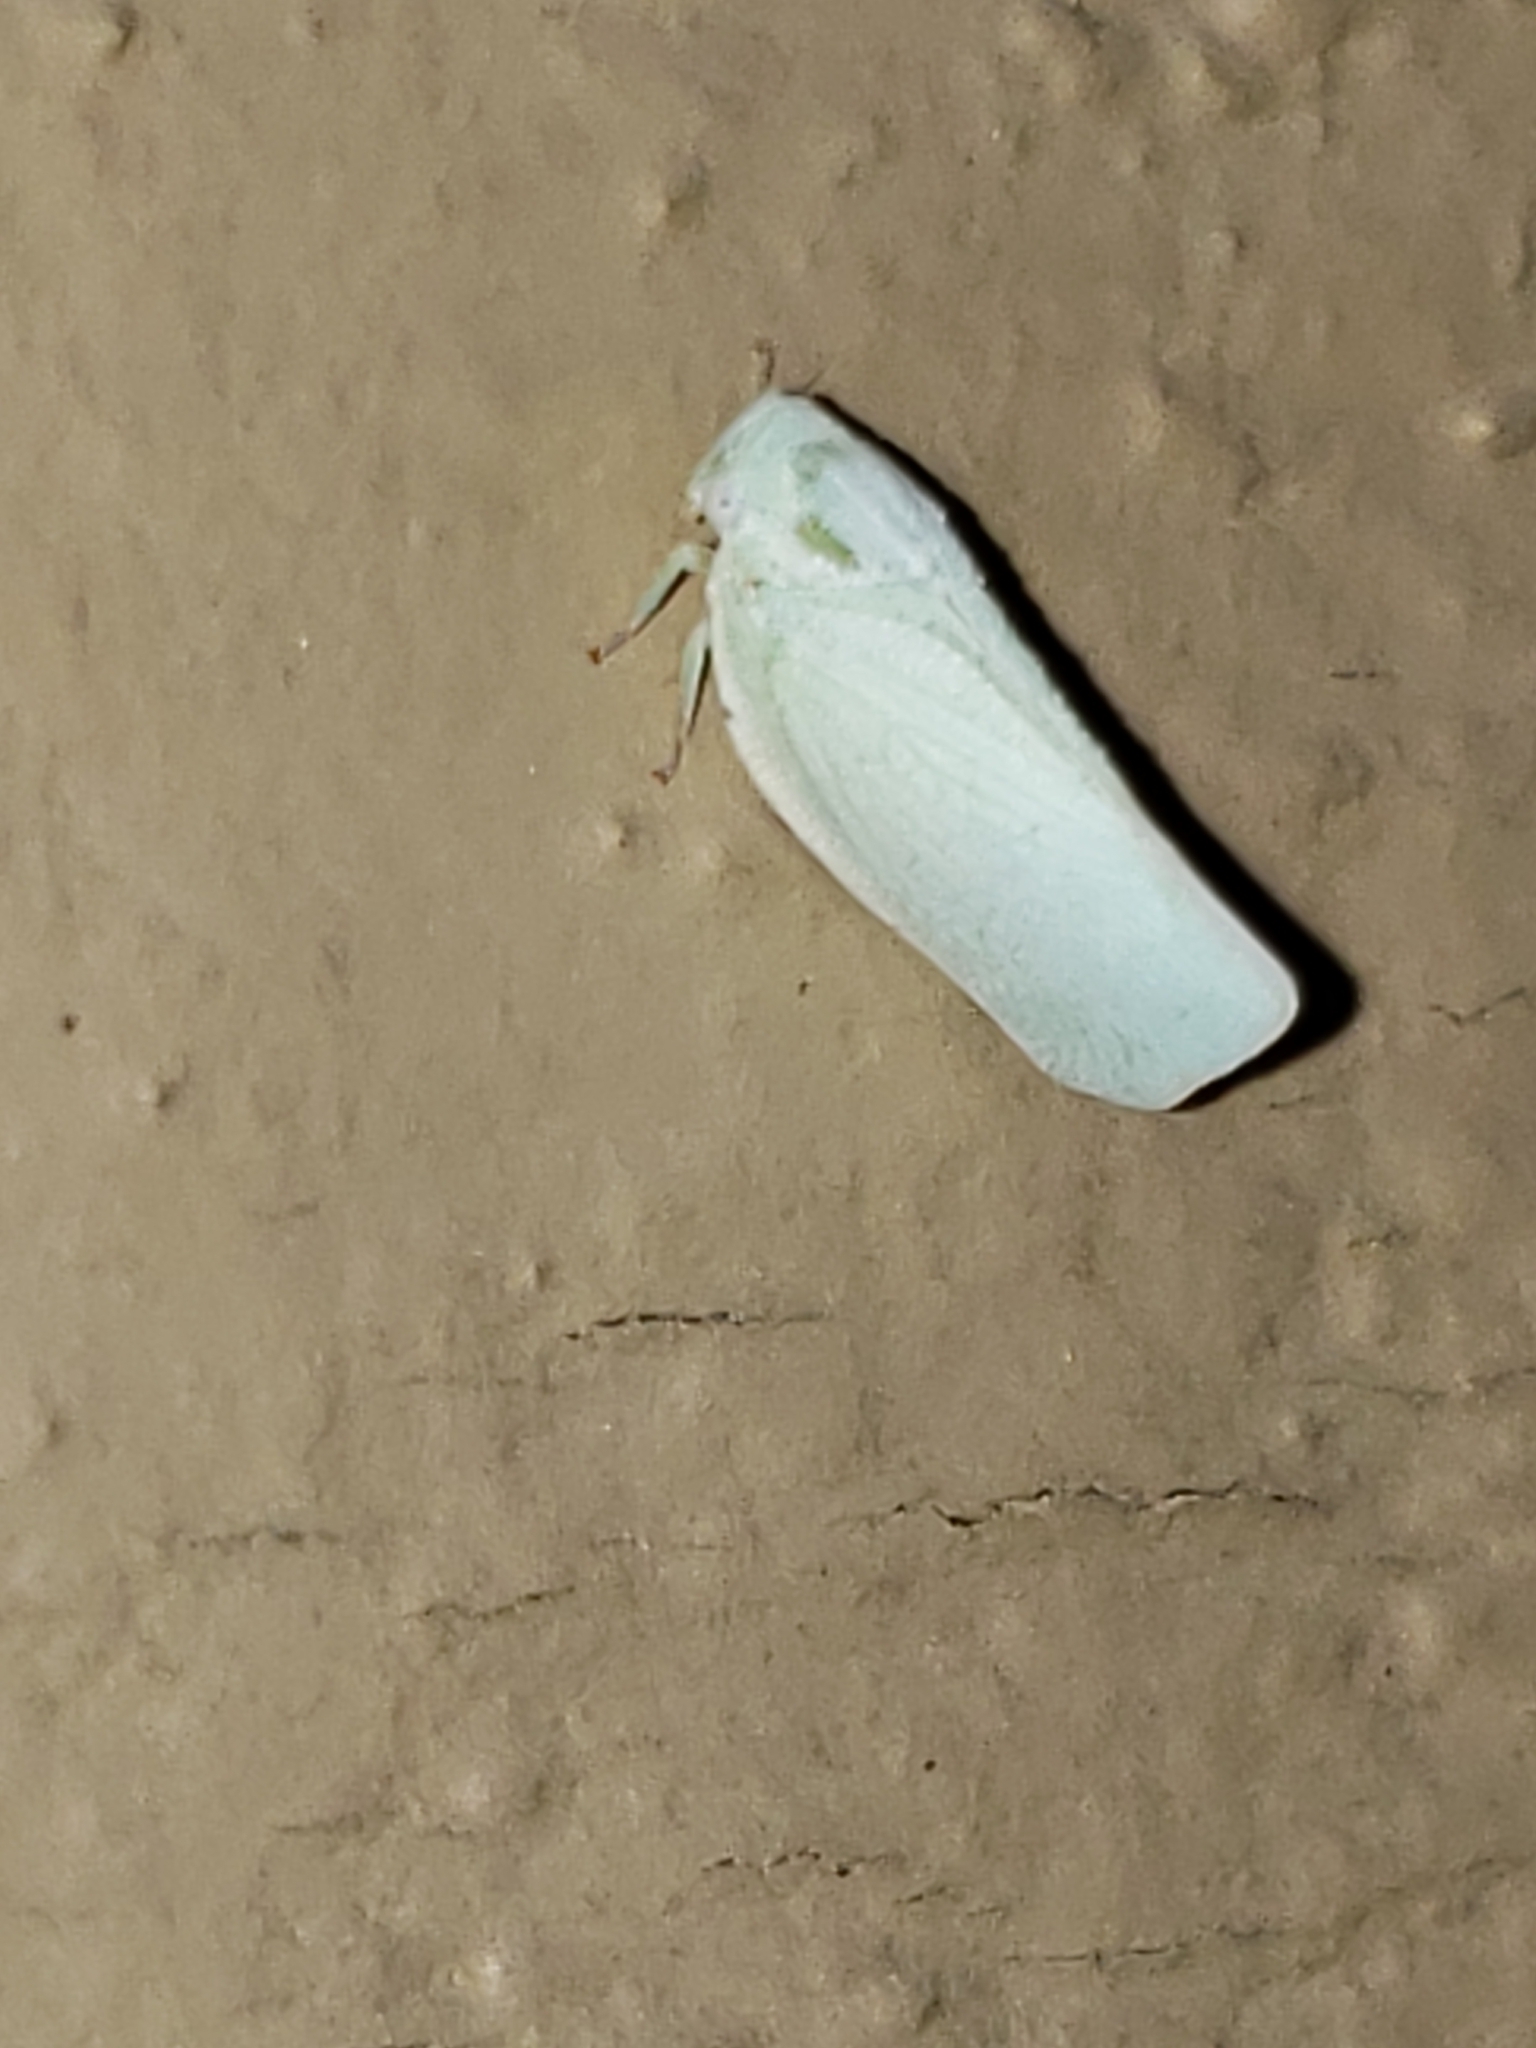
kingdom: Animalia
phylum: Arthropoda
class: Insecta
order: Hemiptera
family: Flatidae
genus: Flatormenis
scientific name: Flatormenis proxima
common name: Northern flatid planthopper
